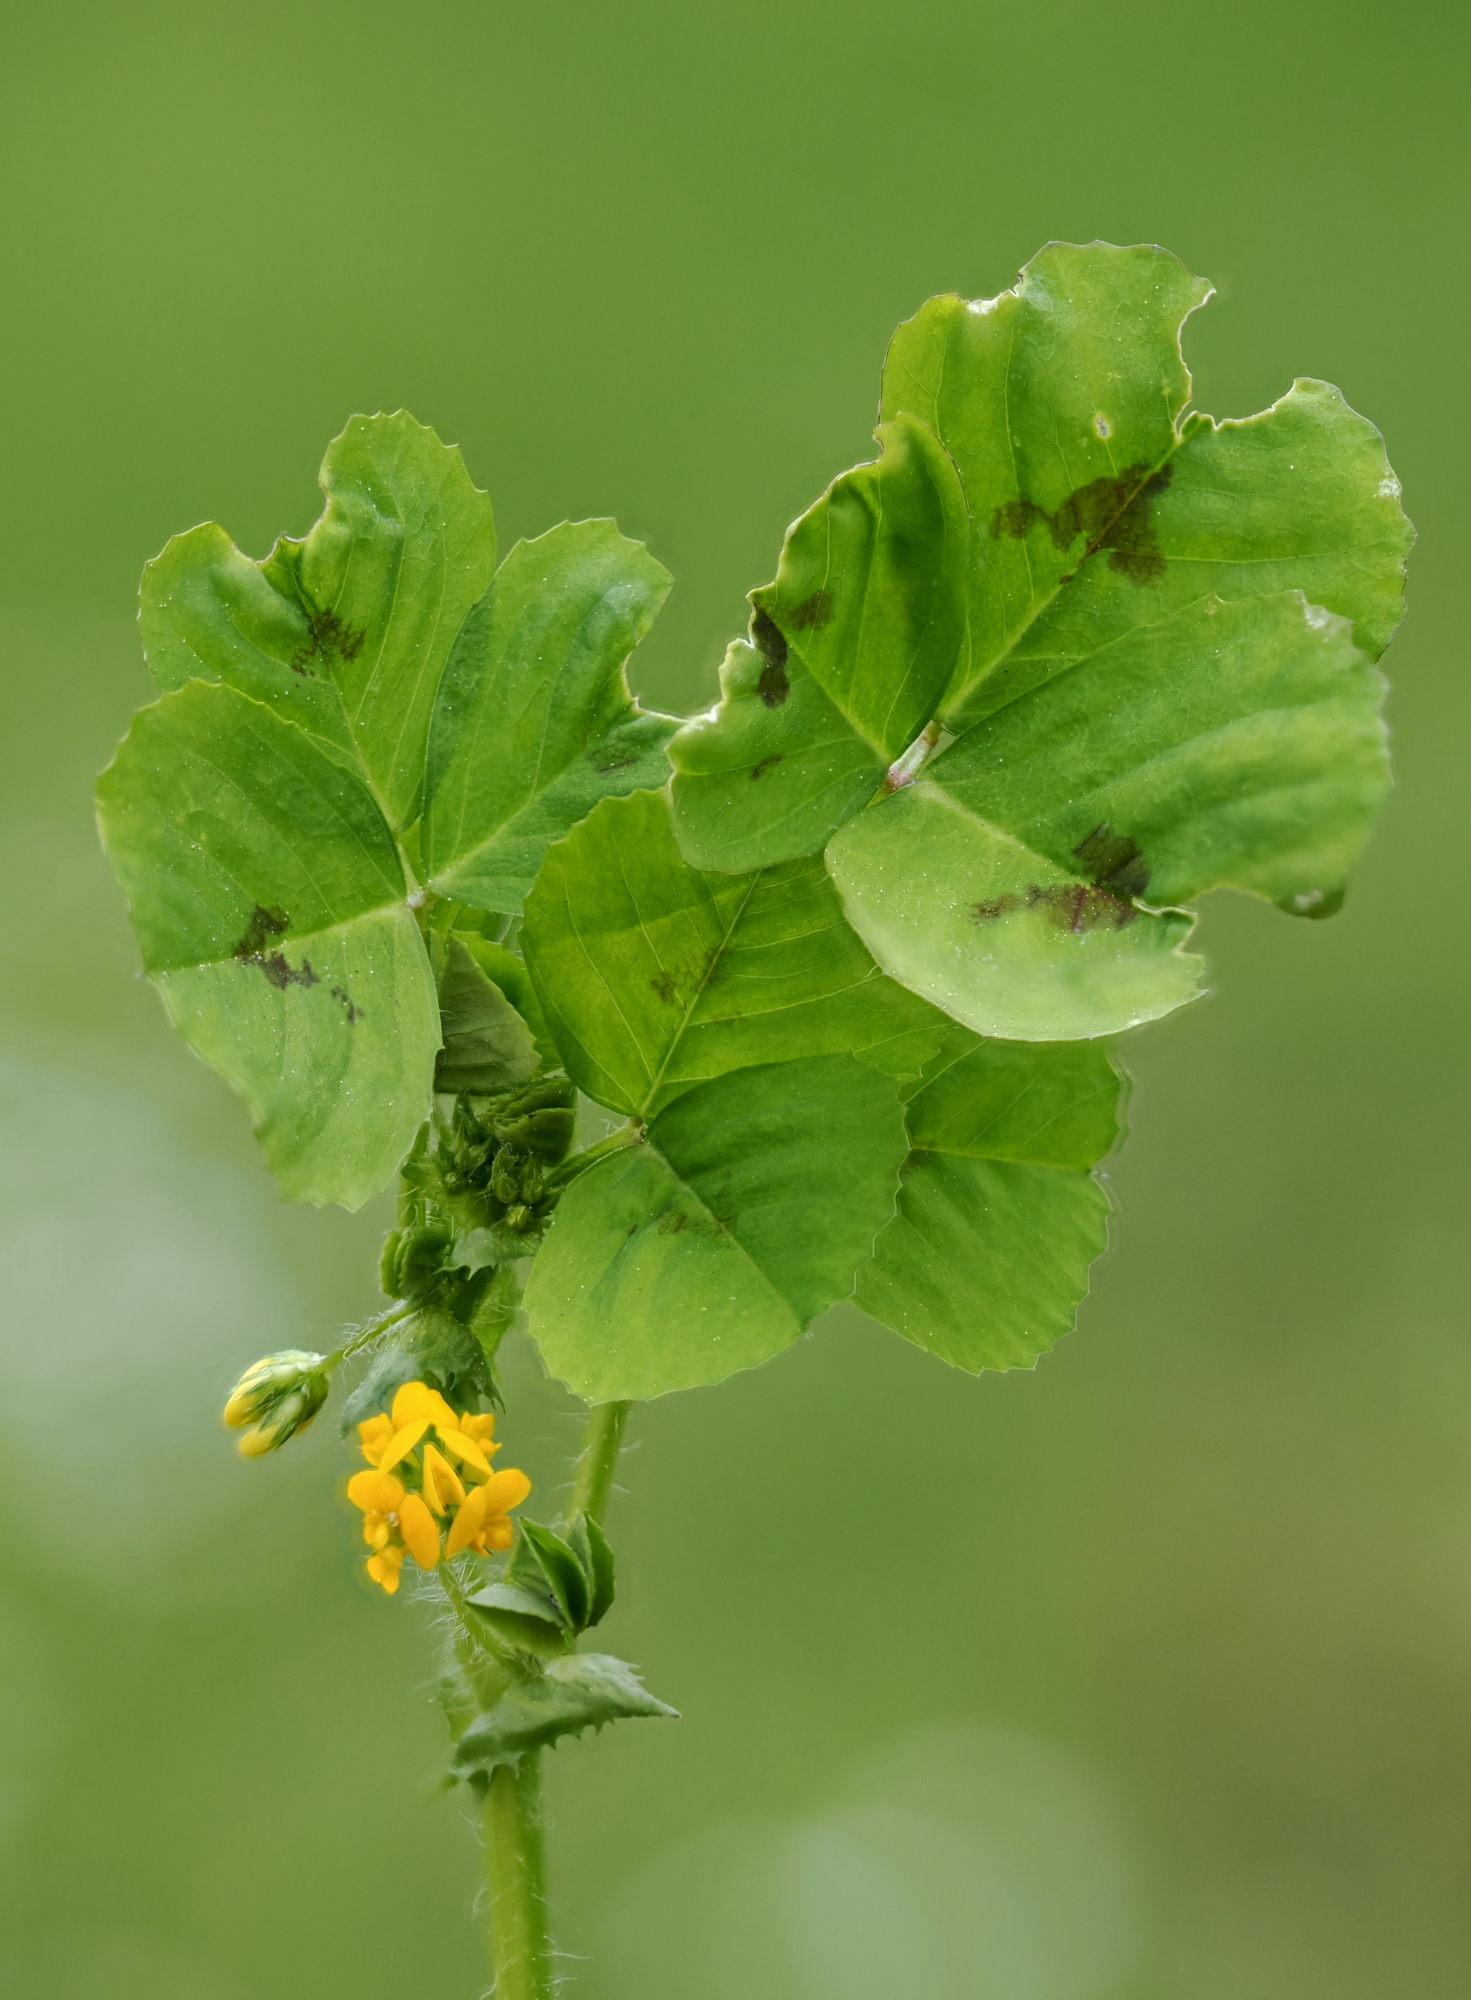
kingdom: Plantae
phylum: Tracheophyta
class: Magnoliopsida
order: Fabales
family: Fabaceae
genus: Medicago
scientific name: Medicago arabica
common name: Spotted medick
